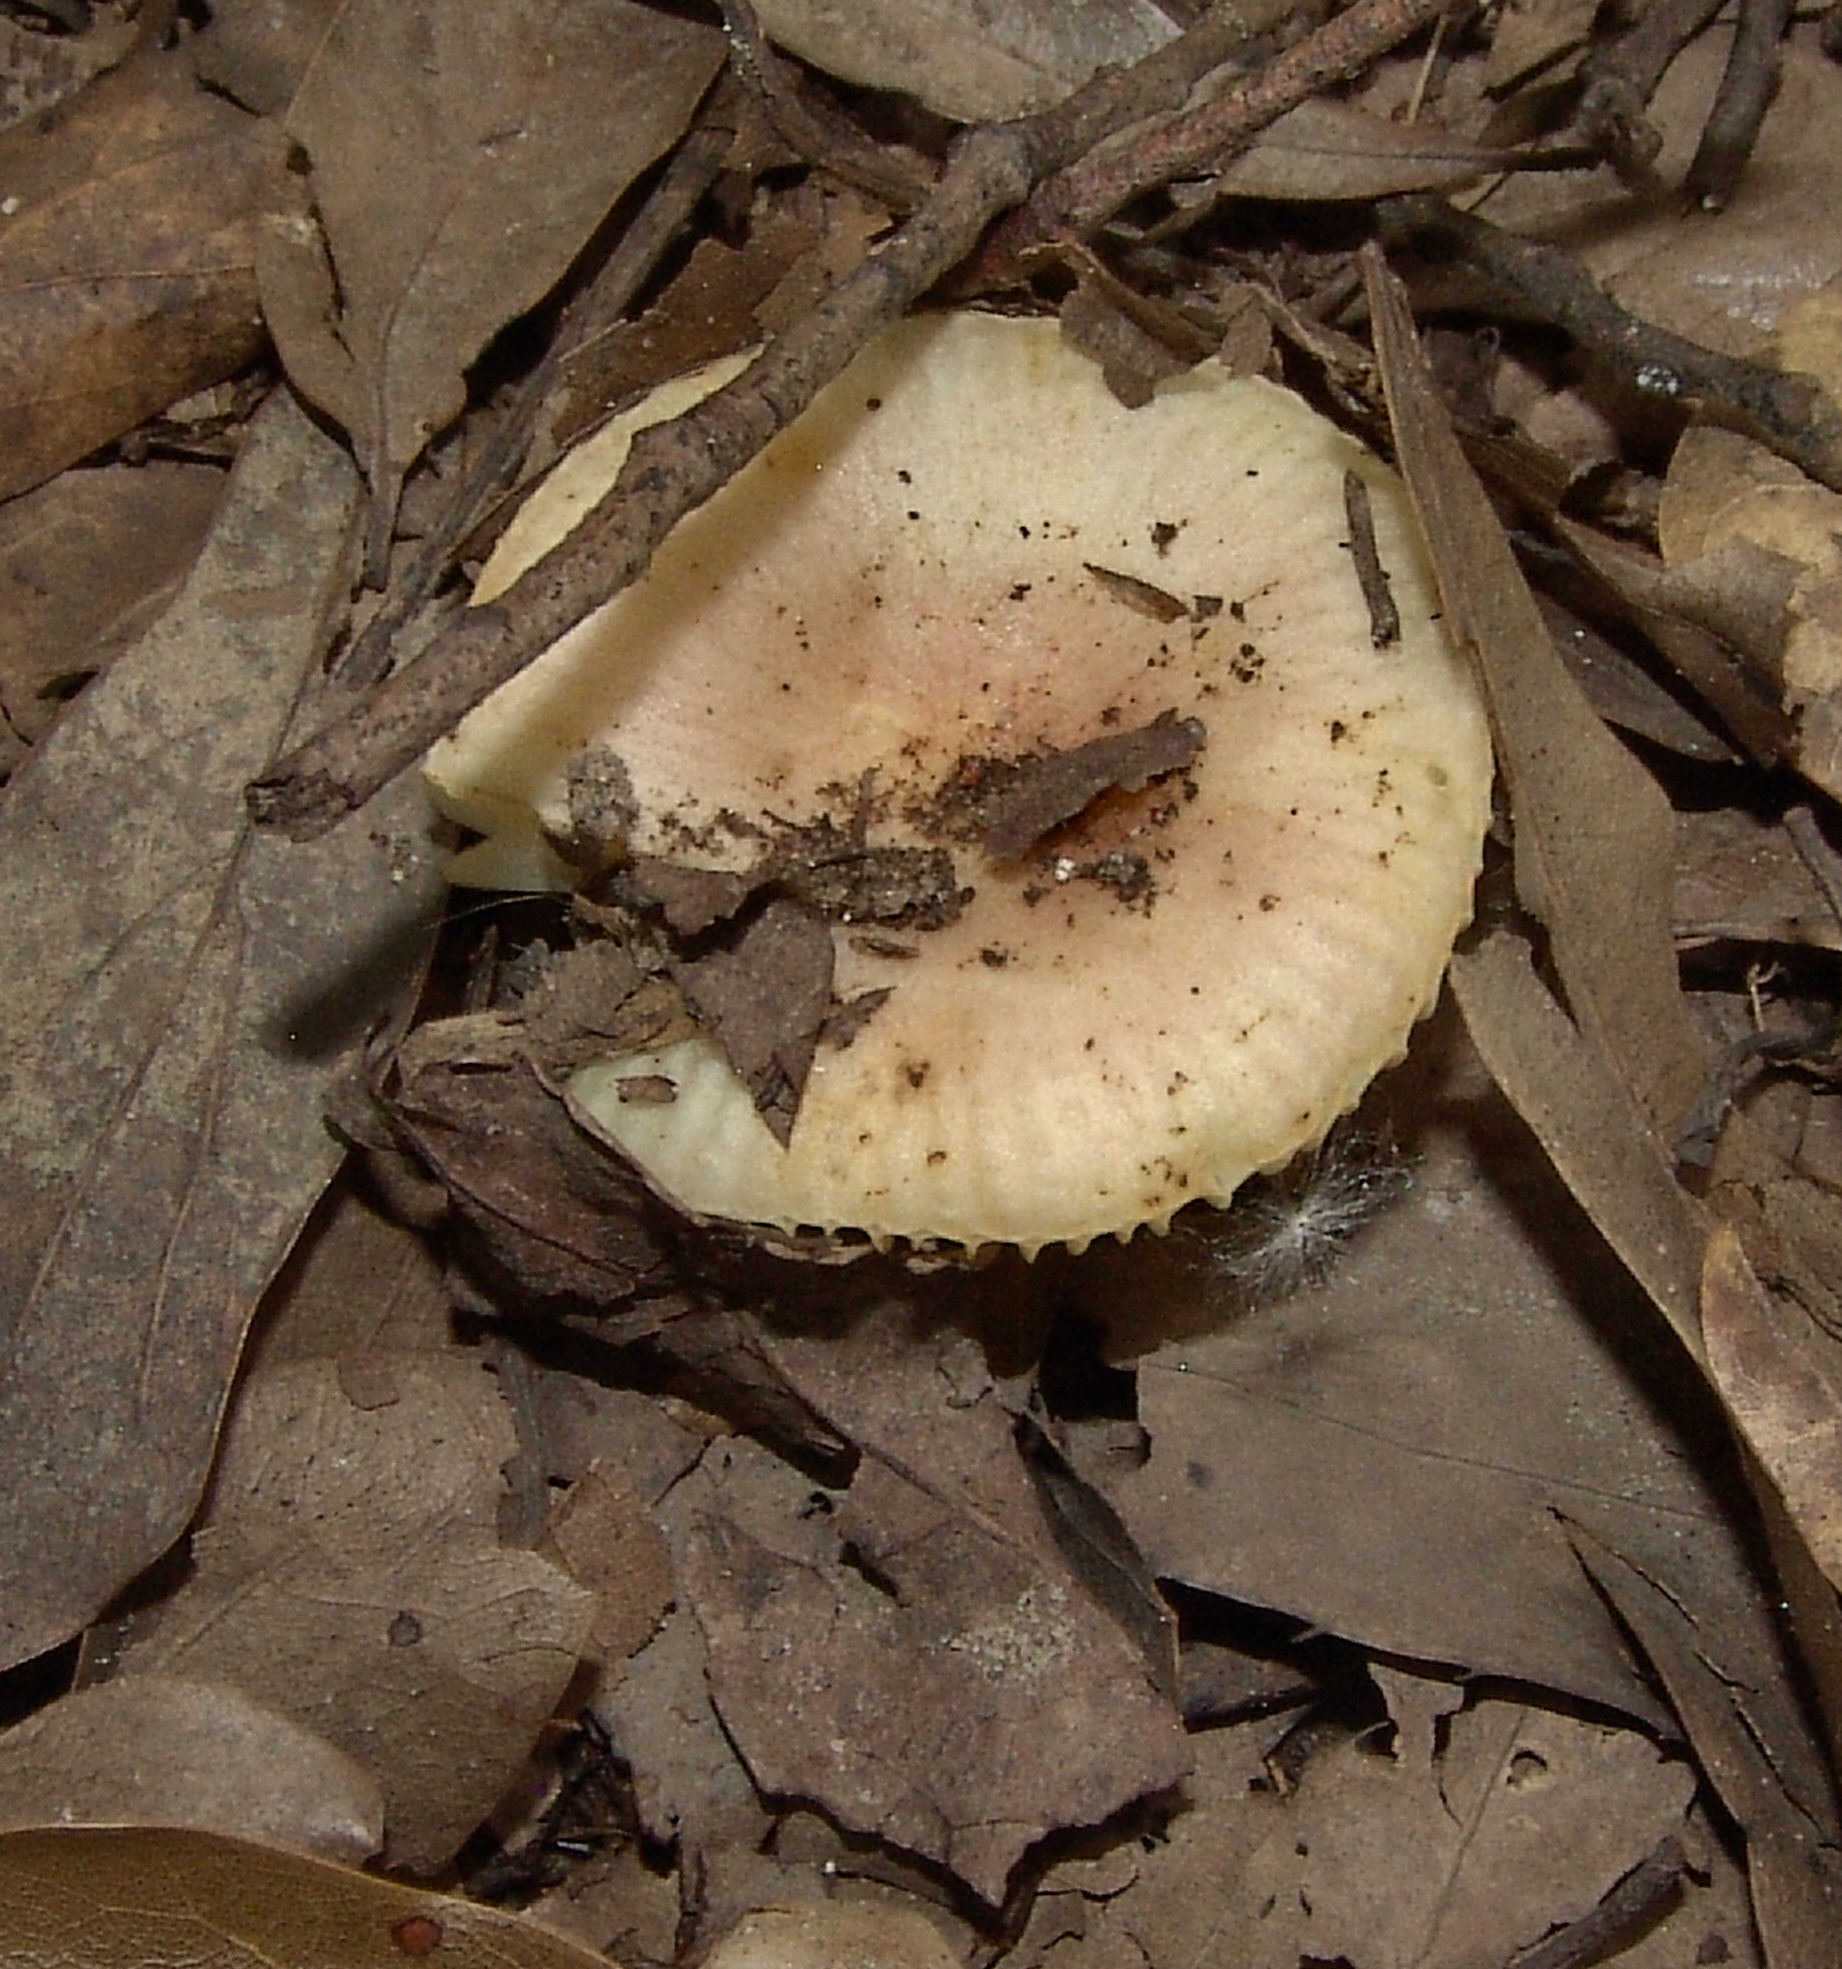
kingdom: Fungi
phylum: Basidiomycota
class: Agaricomycetes
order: Russulales
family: Russulaceae
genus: Russula
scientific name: Russula
